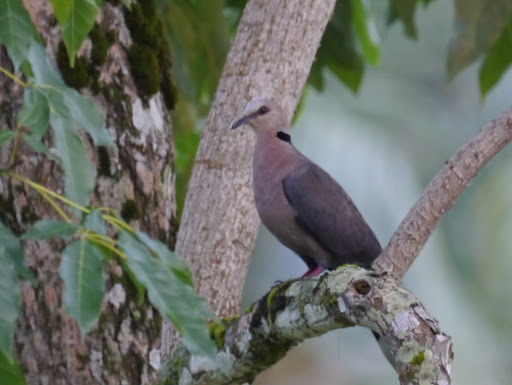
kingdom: Animalia
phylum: Chordata
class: Aves
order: Columbiformes
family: Columbidae
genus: Streptopelia
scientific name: Streptopelia semitorquata
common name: Red-eyed dove
